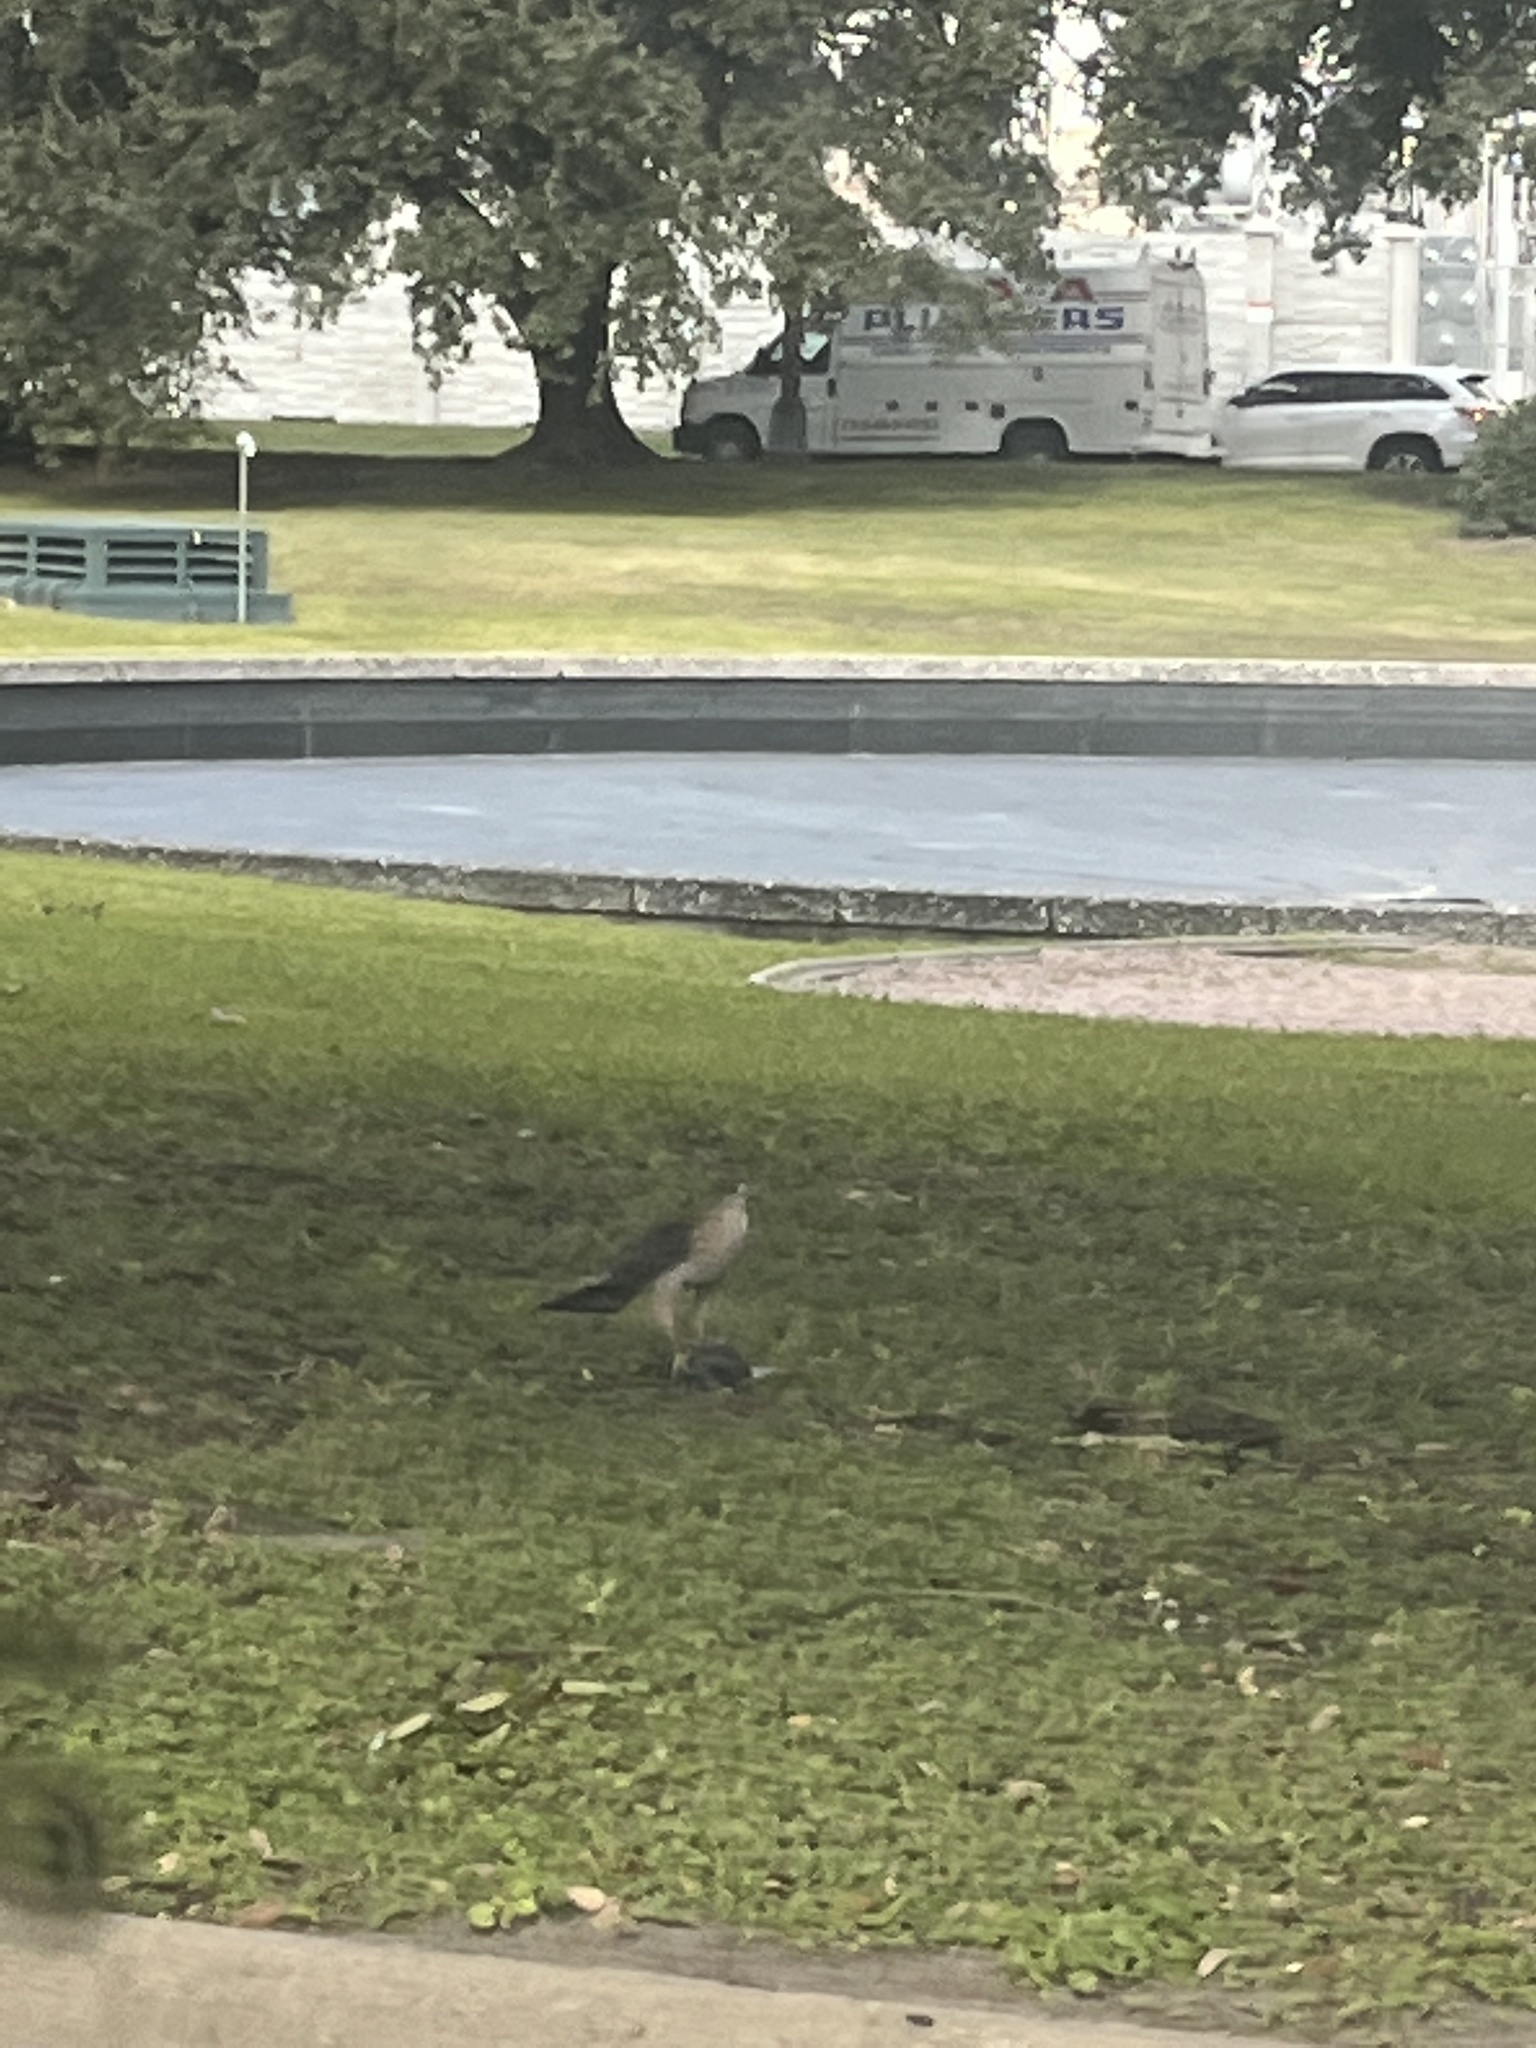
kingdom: Animalia
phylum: Chordata
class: Aves
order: Accipitriformes
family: Accipitridae
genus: Accipiter
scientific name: Accipiter cooperii
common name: Cooper's hawk
